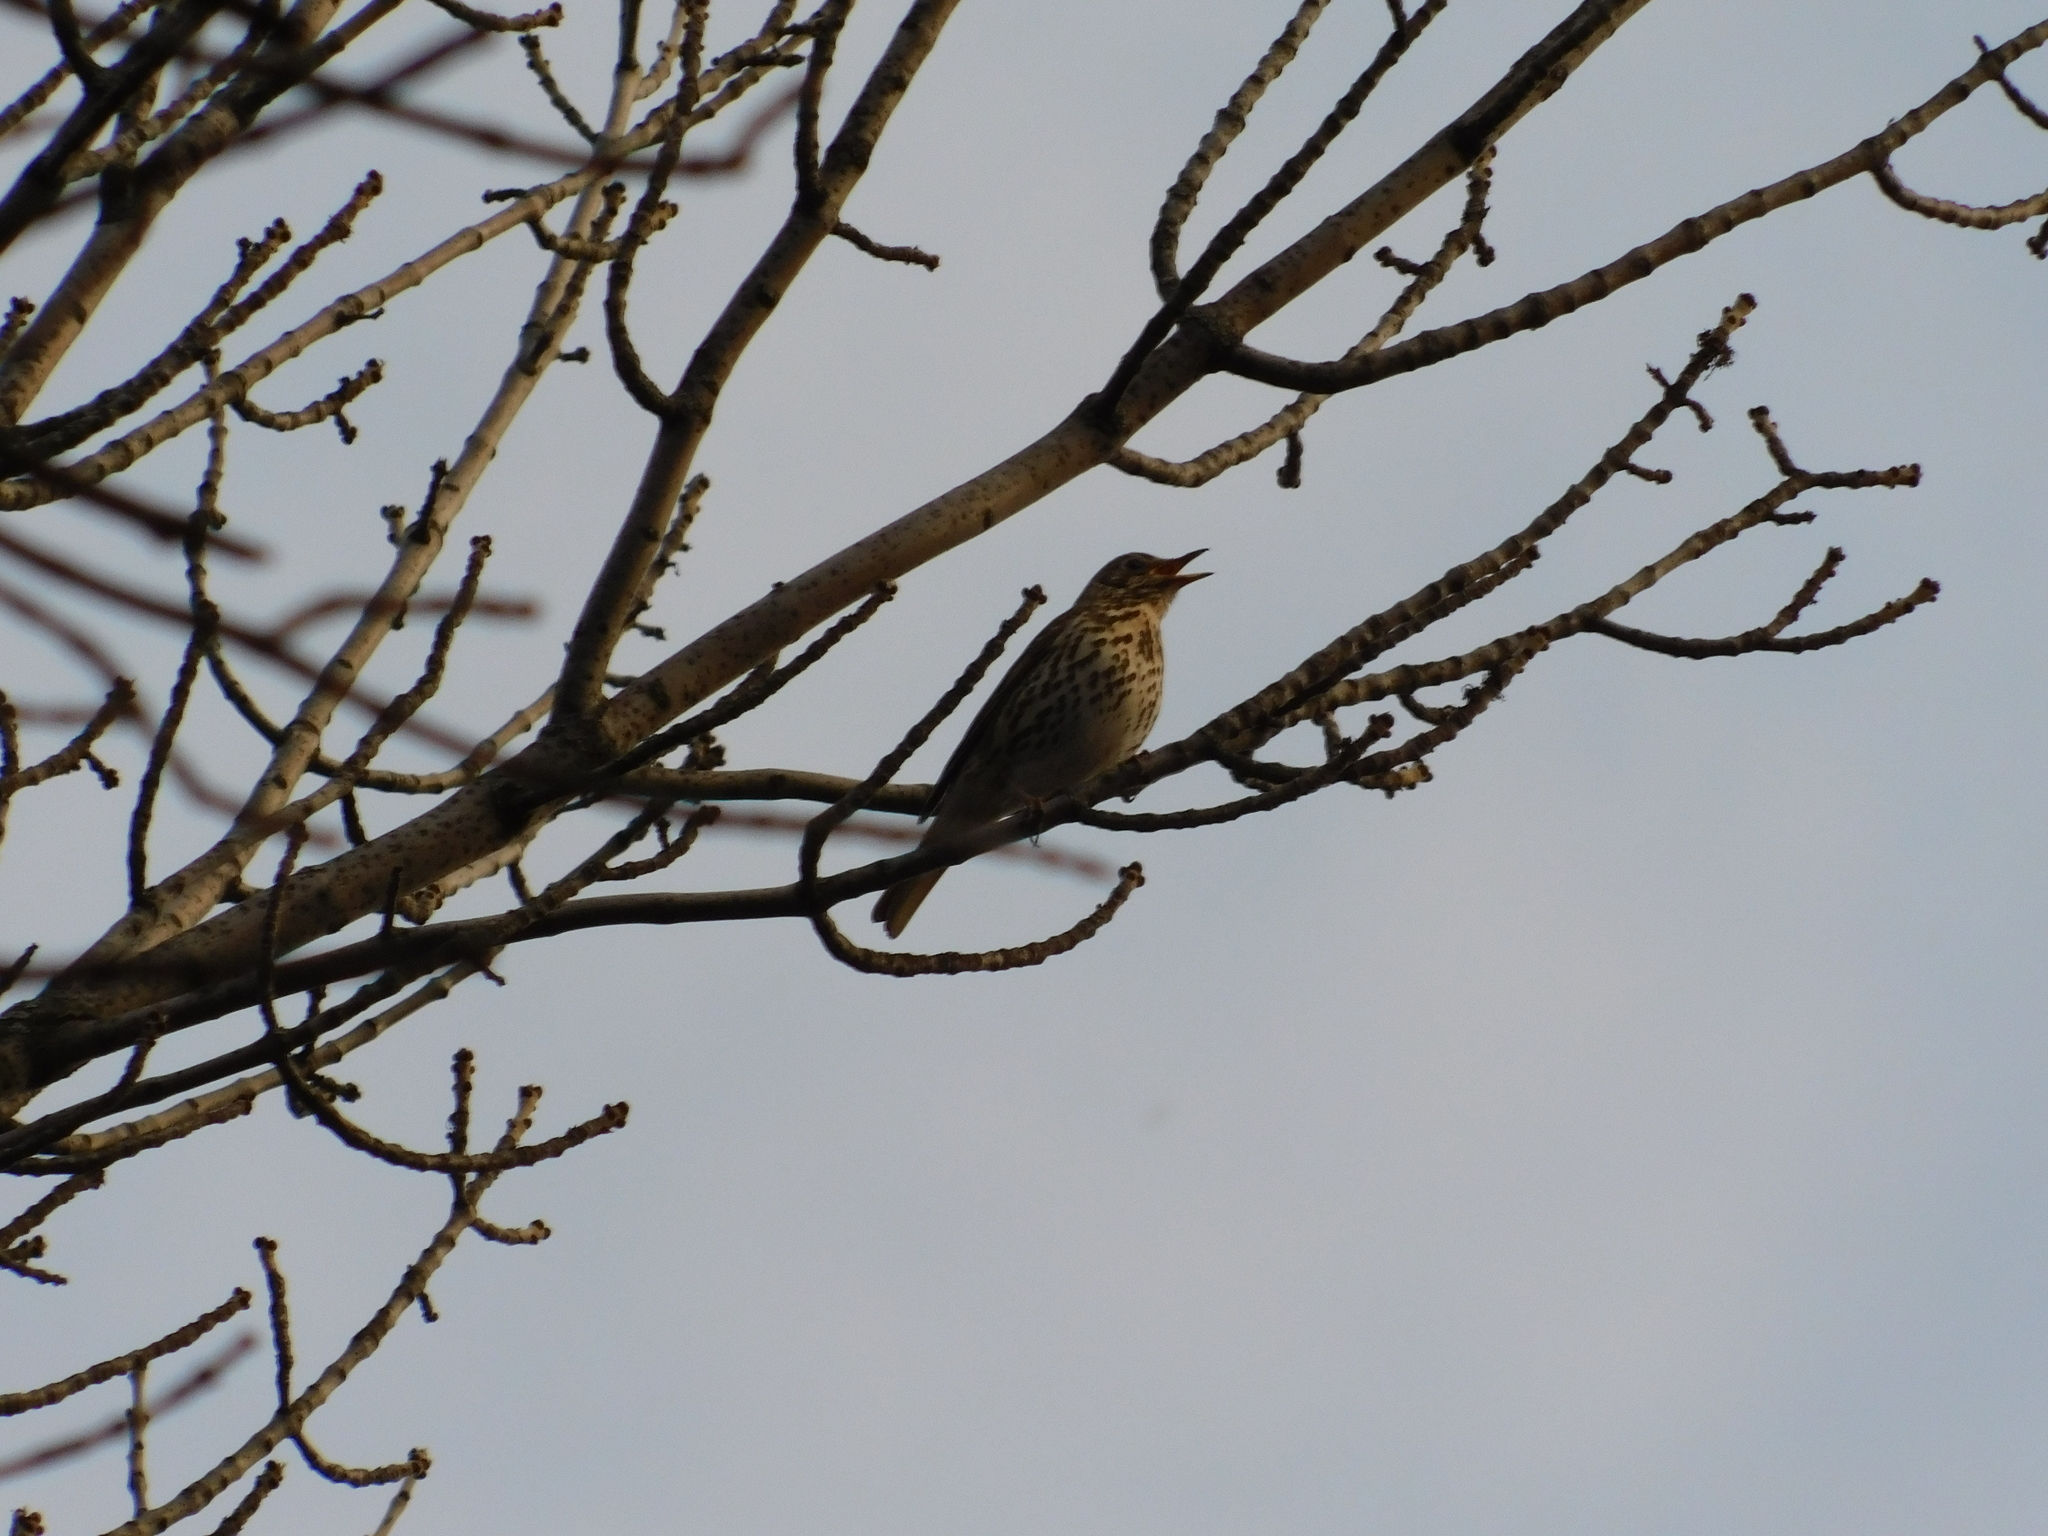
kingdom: Animalia
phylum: Chordata
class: Aves
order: Passeriformes
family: Turdidae
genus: Turdus
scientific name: Turdus philomelos
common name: Song thrush
